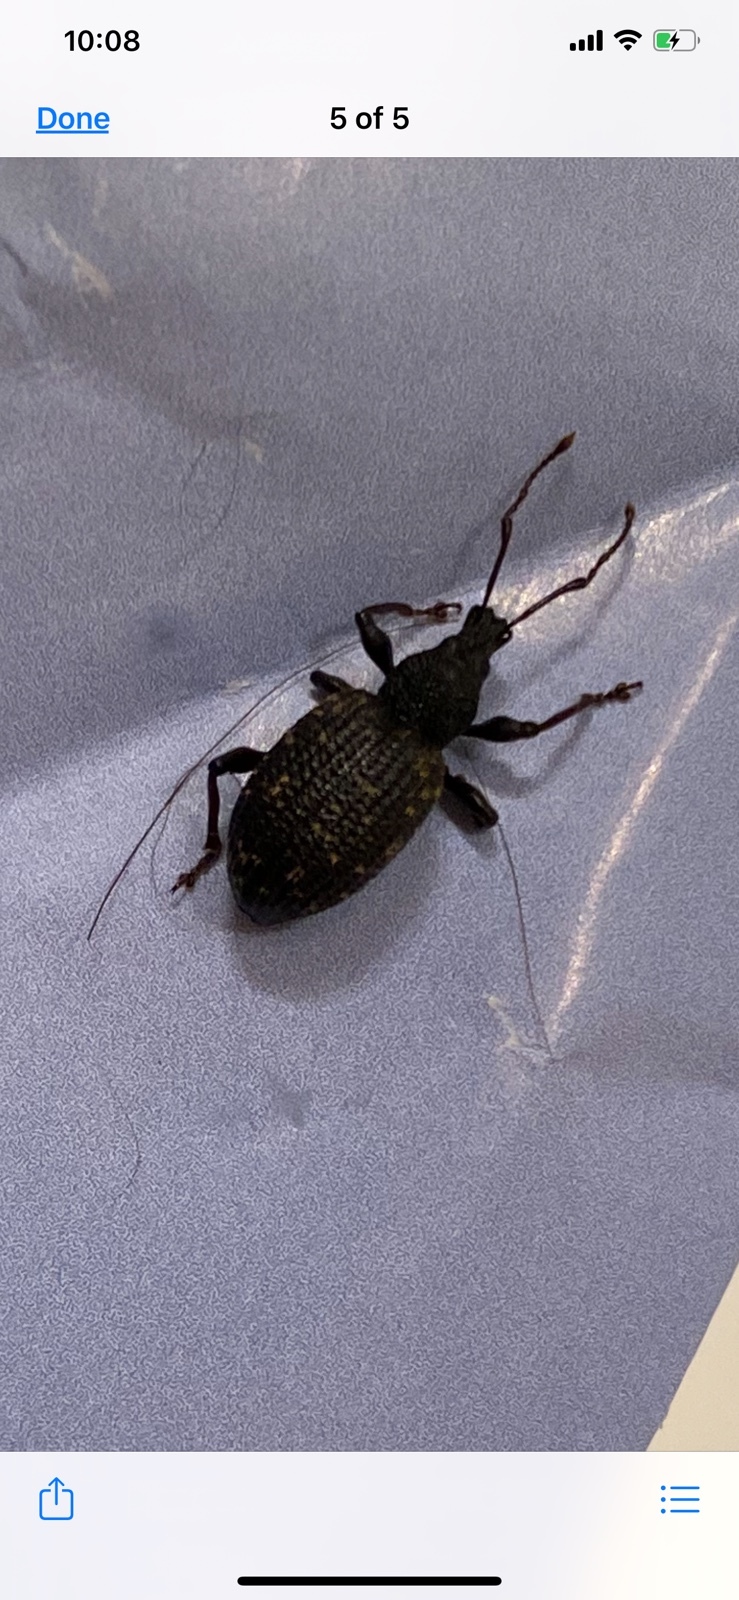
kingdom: Animalia
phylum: Arthropoda
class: Insecta
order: Coleoptera
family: Curculionidae
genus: Otiorhynchus
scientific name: Otiorhynchus sulcatus
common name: Black vine weevil
